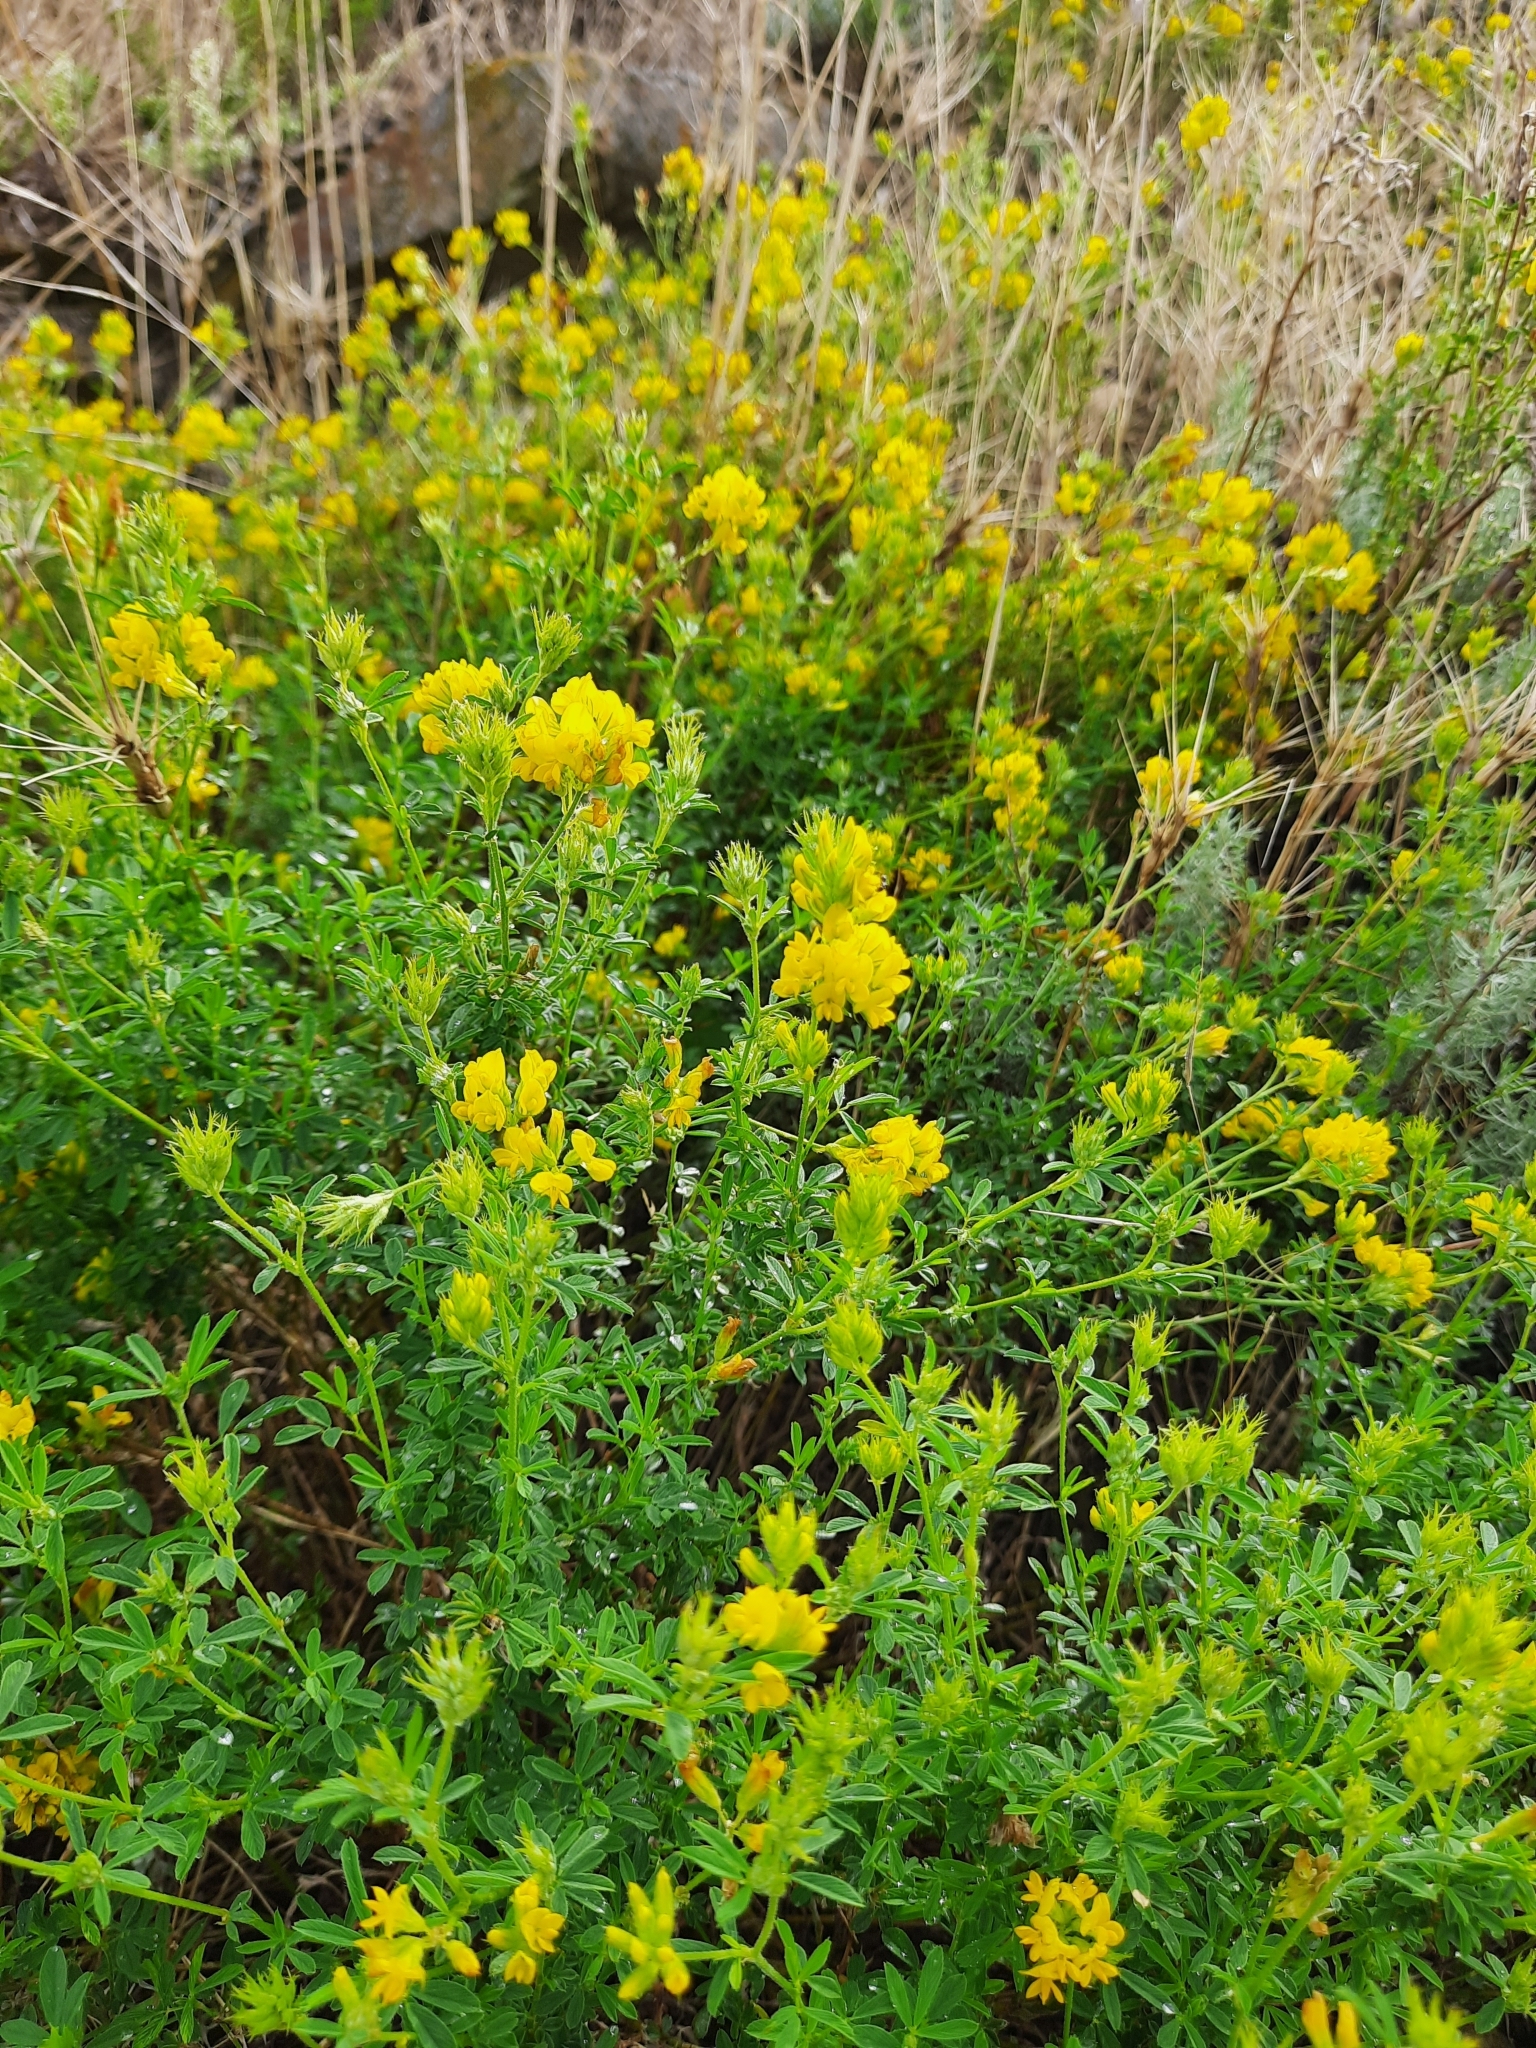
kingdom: Plantae
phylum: Tracheophyta
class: Magnoliopsida
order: Fabales
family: Fabaceae
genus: Medicago
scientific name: Medicago falcata
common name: Sickle medick
